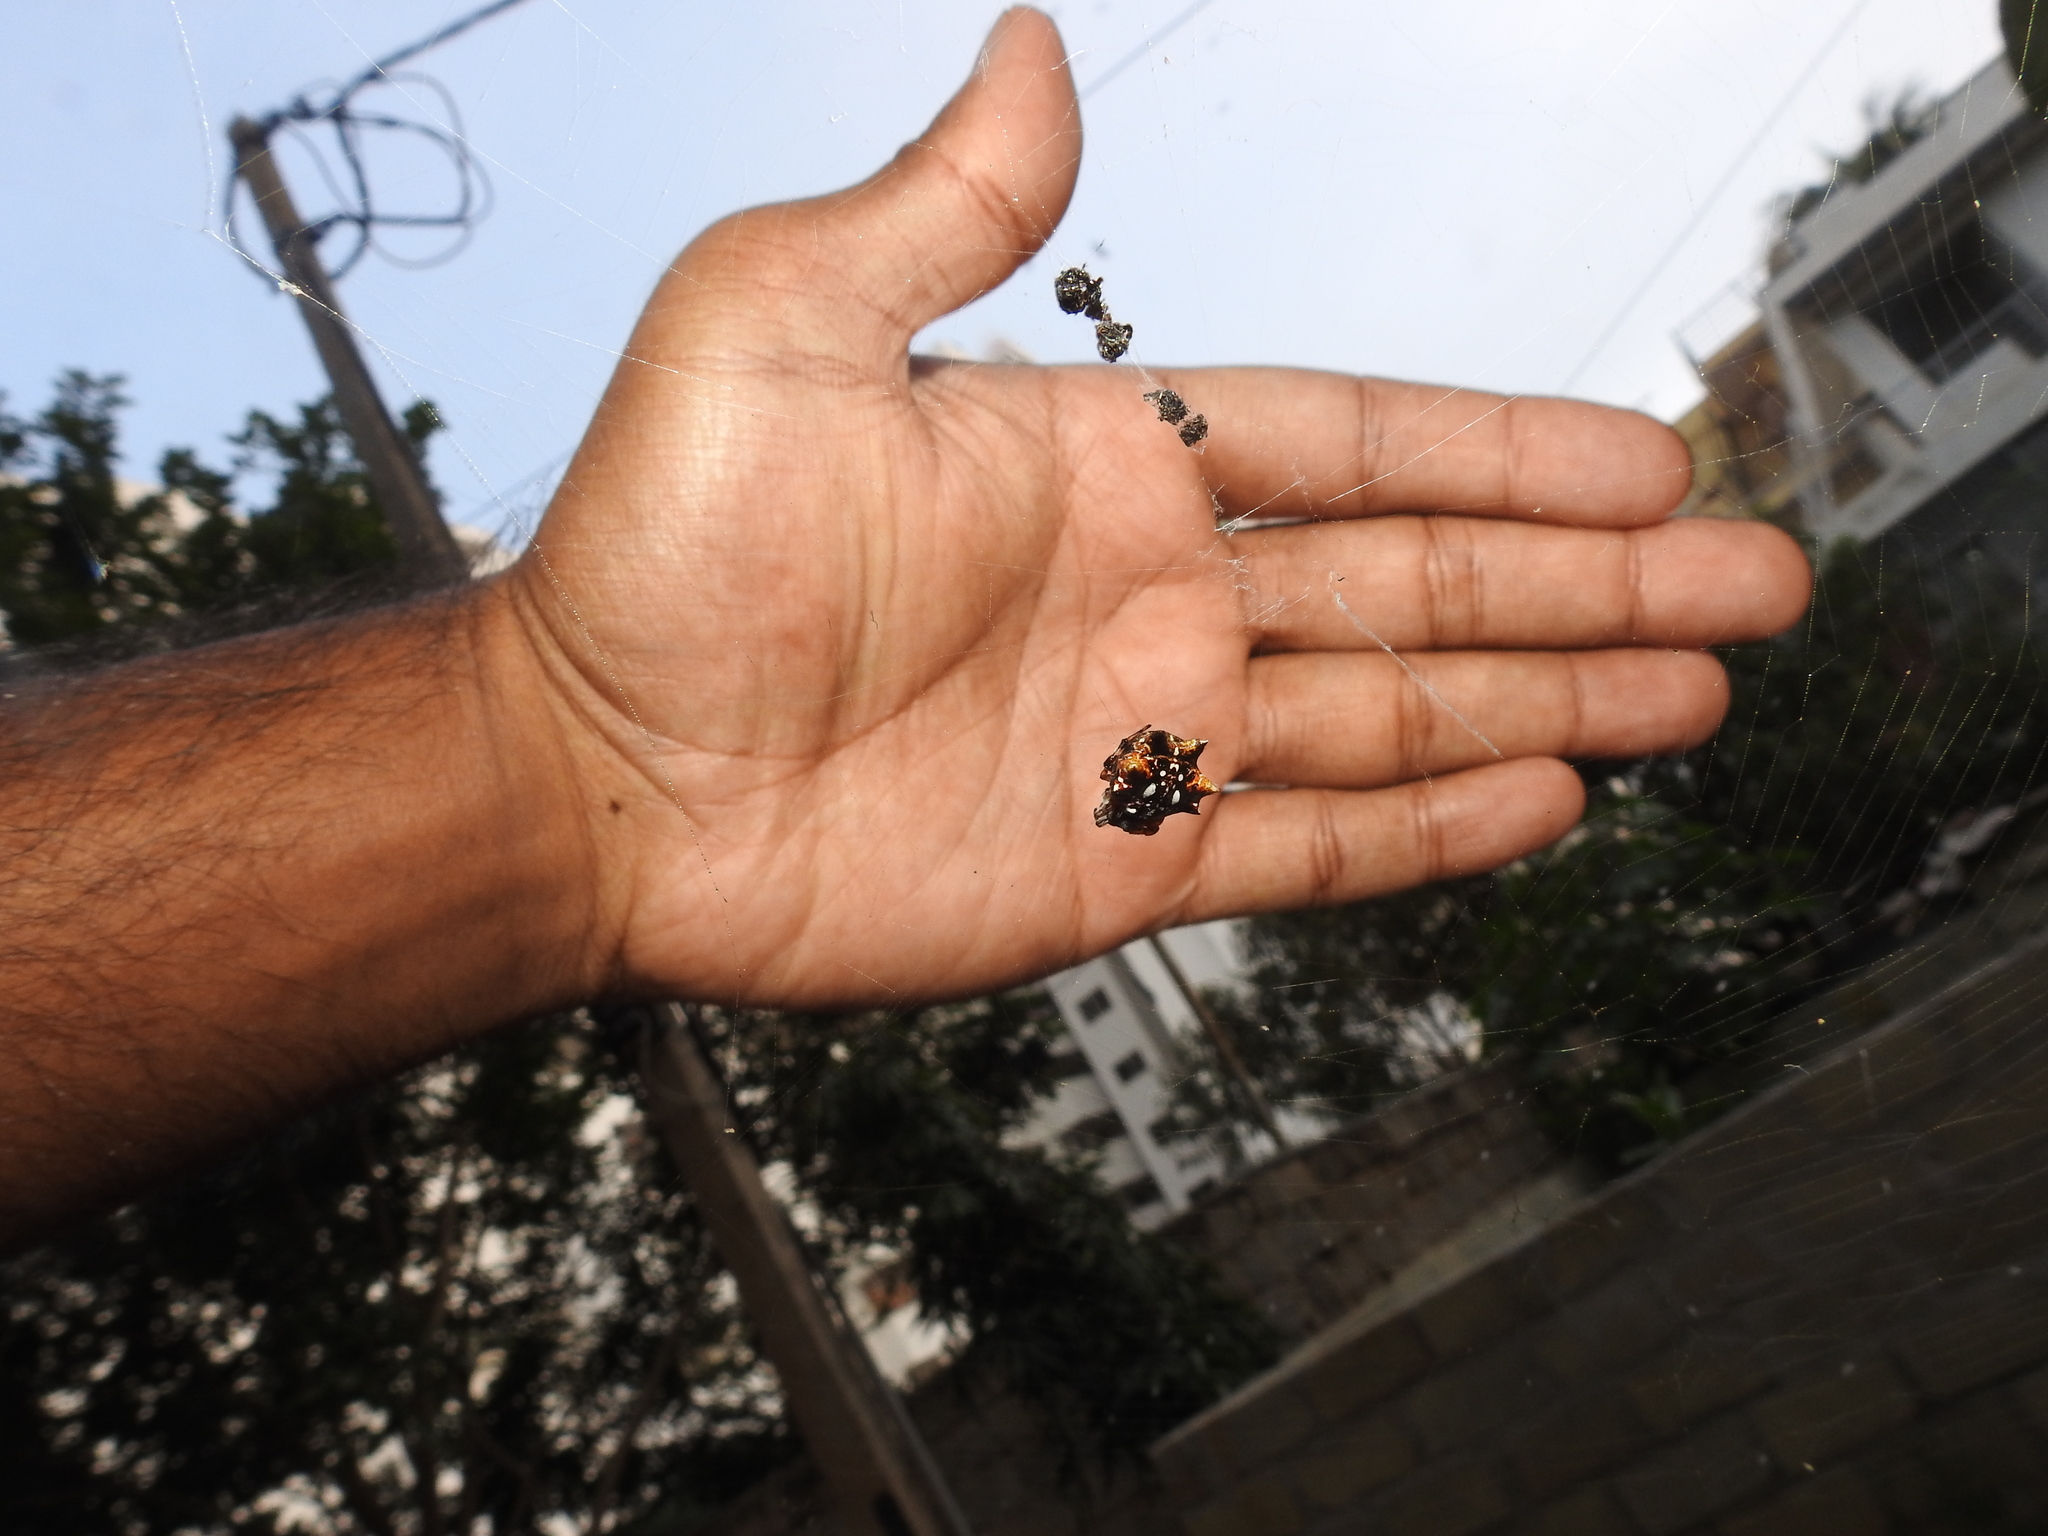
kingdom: Animalia
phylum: Arthropoda
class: Arachnida
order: Araneae
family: Araneidae
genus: Thelacantha
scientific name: Thelacantha brevispina
